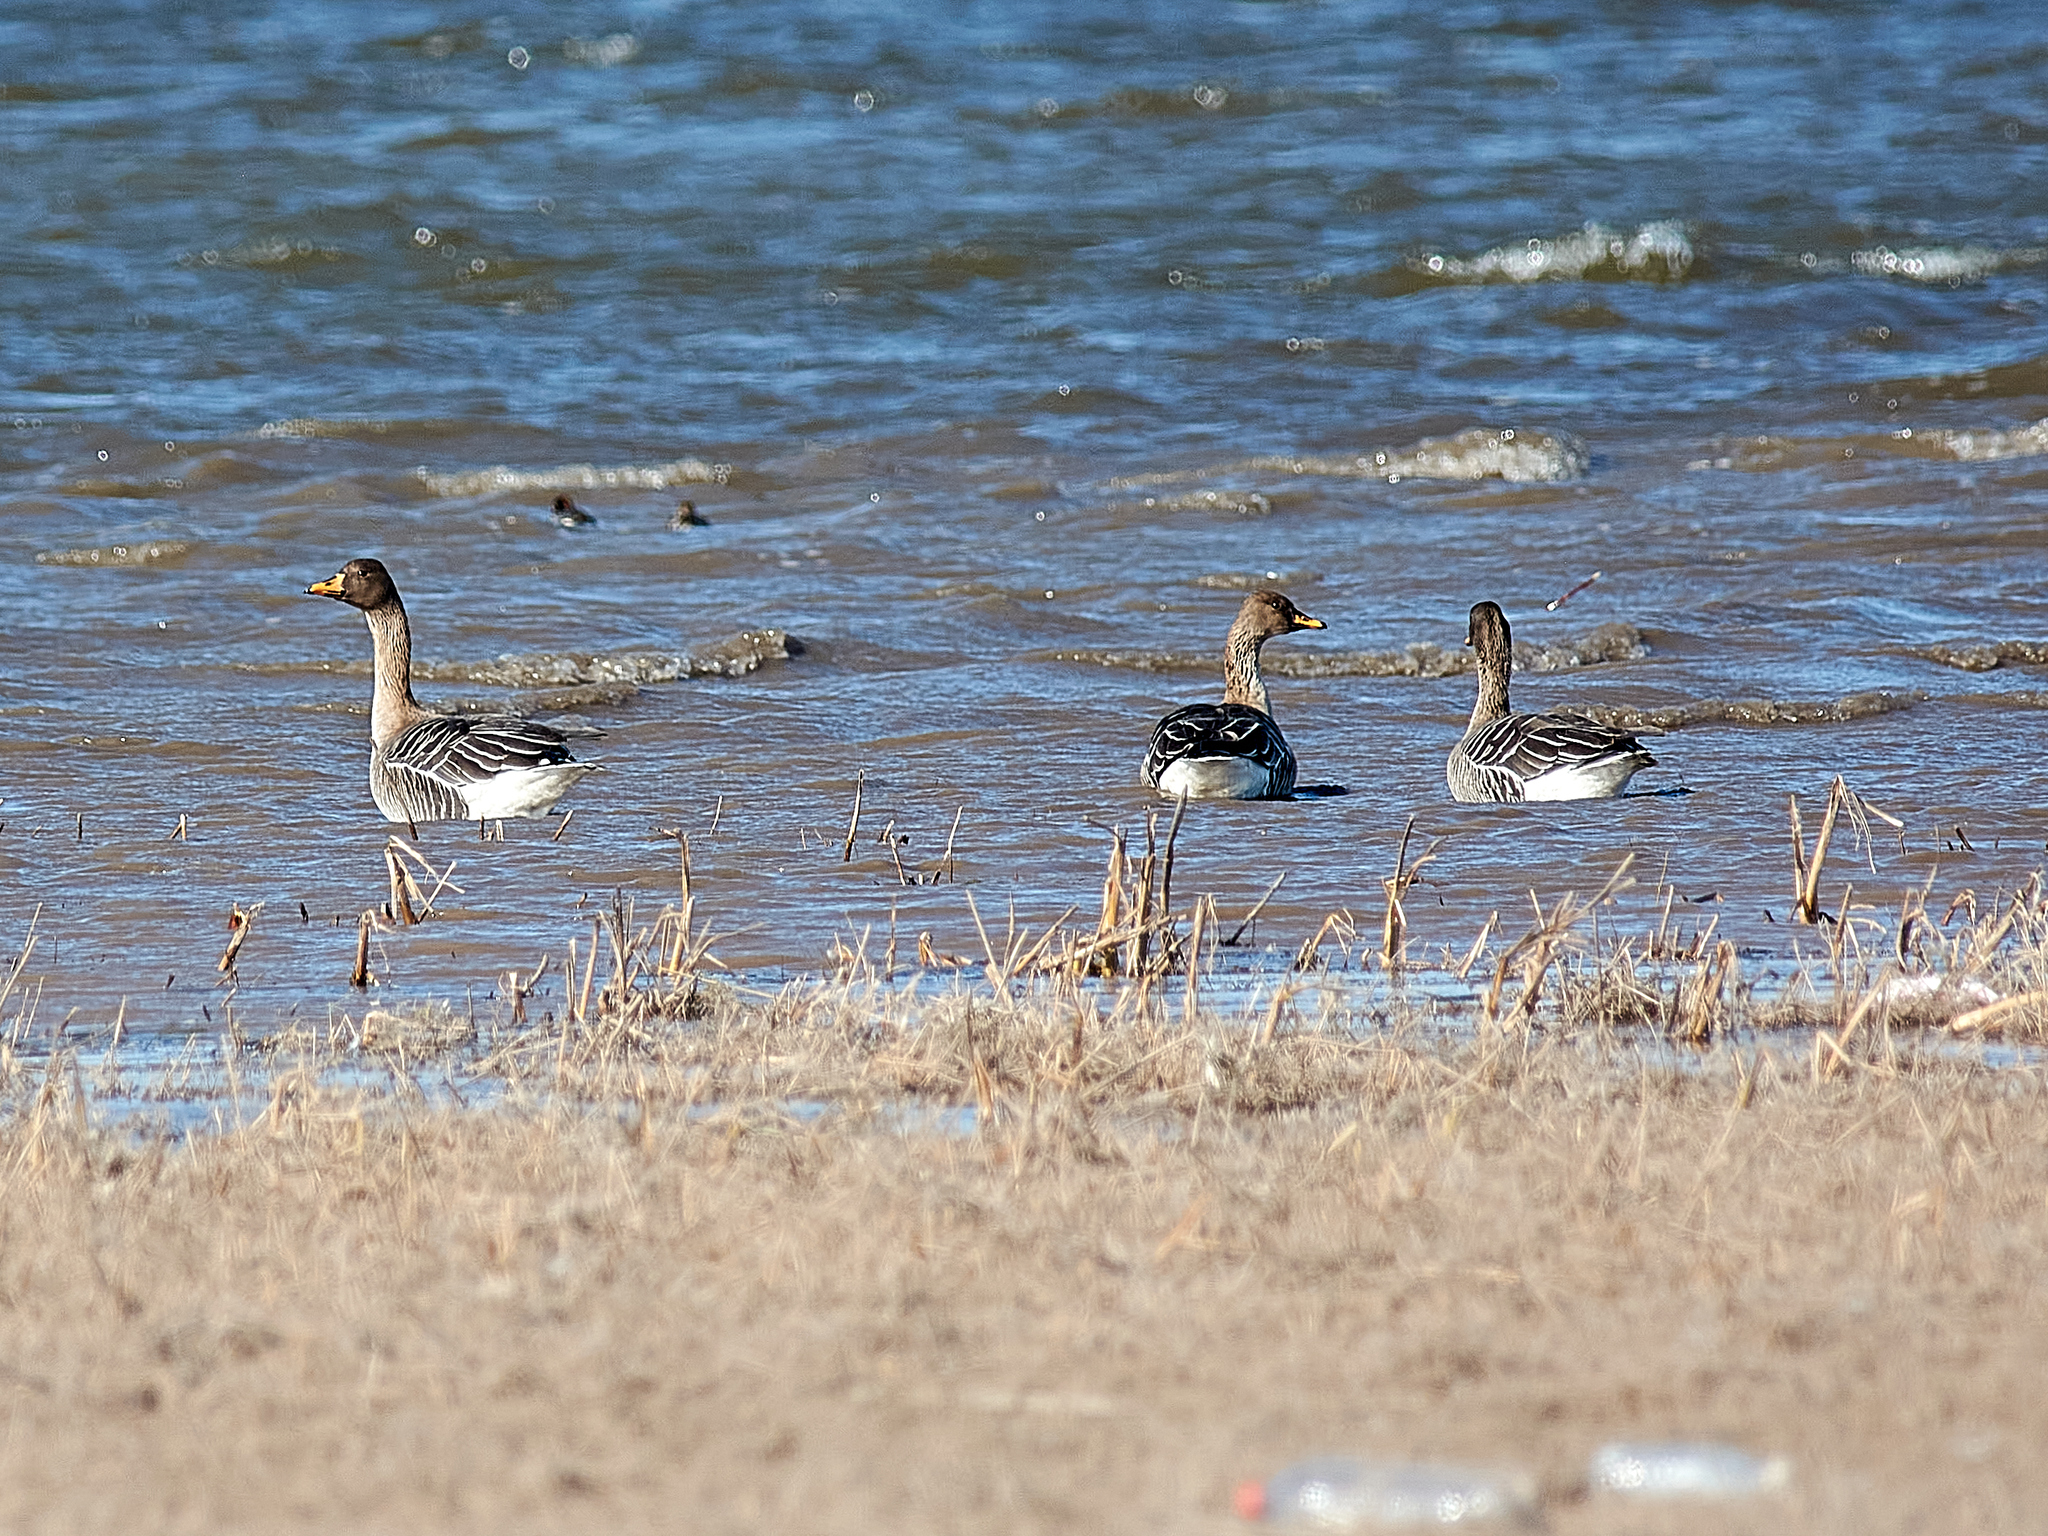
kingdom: Animalia
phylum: Chordata
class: Aves
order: Anseriformes
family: Anatidae
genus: Anser
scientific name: Anser fabalis
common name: Bean goose
